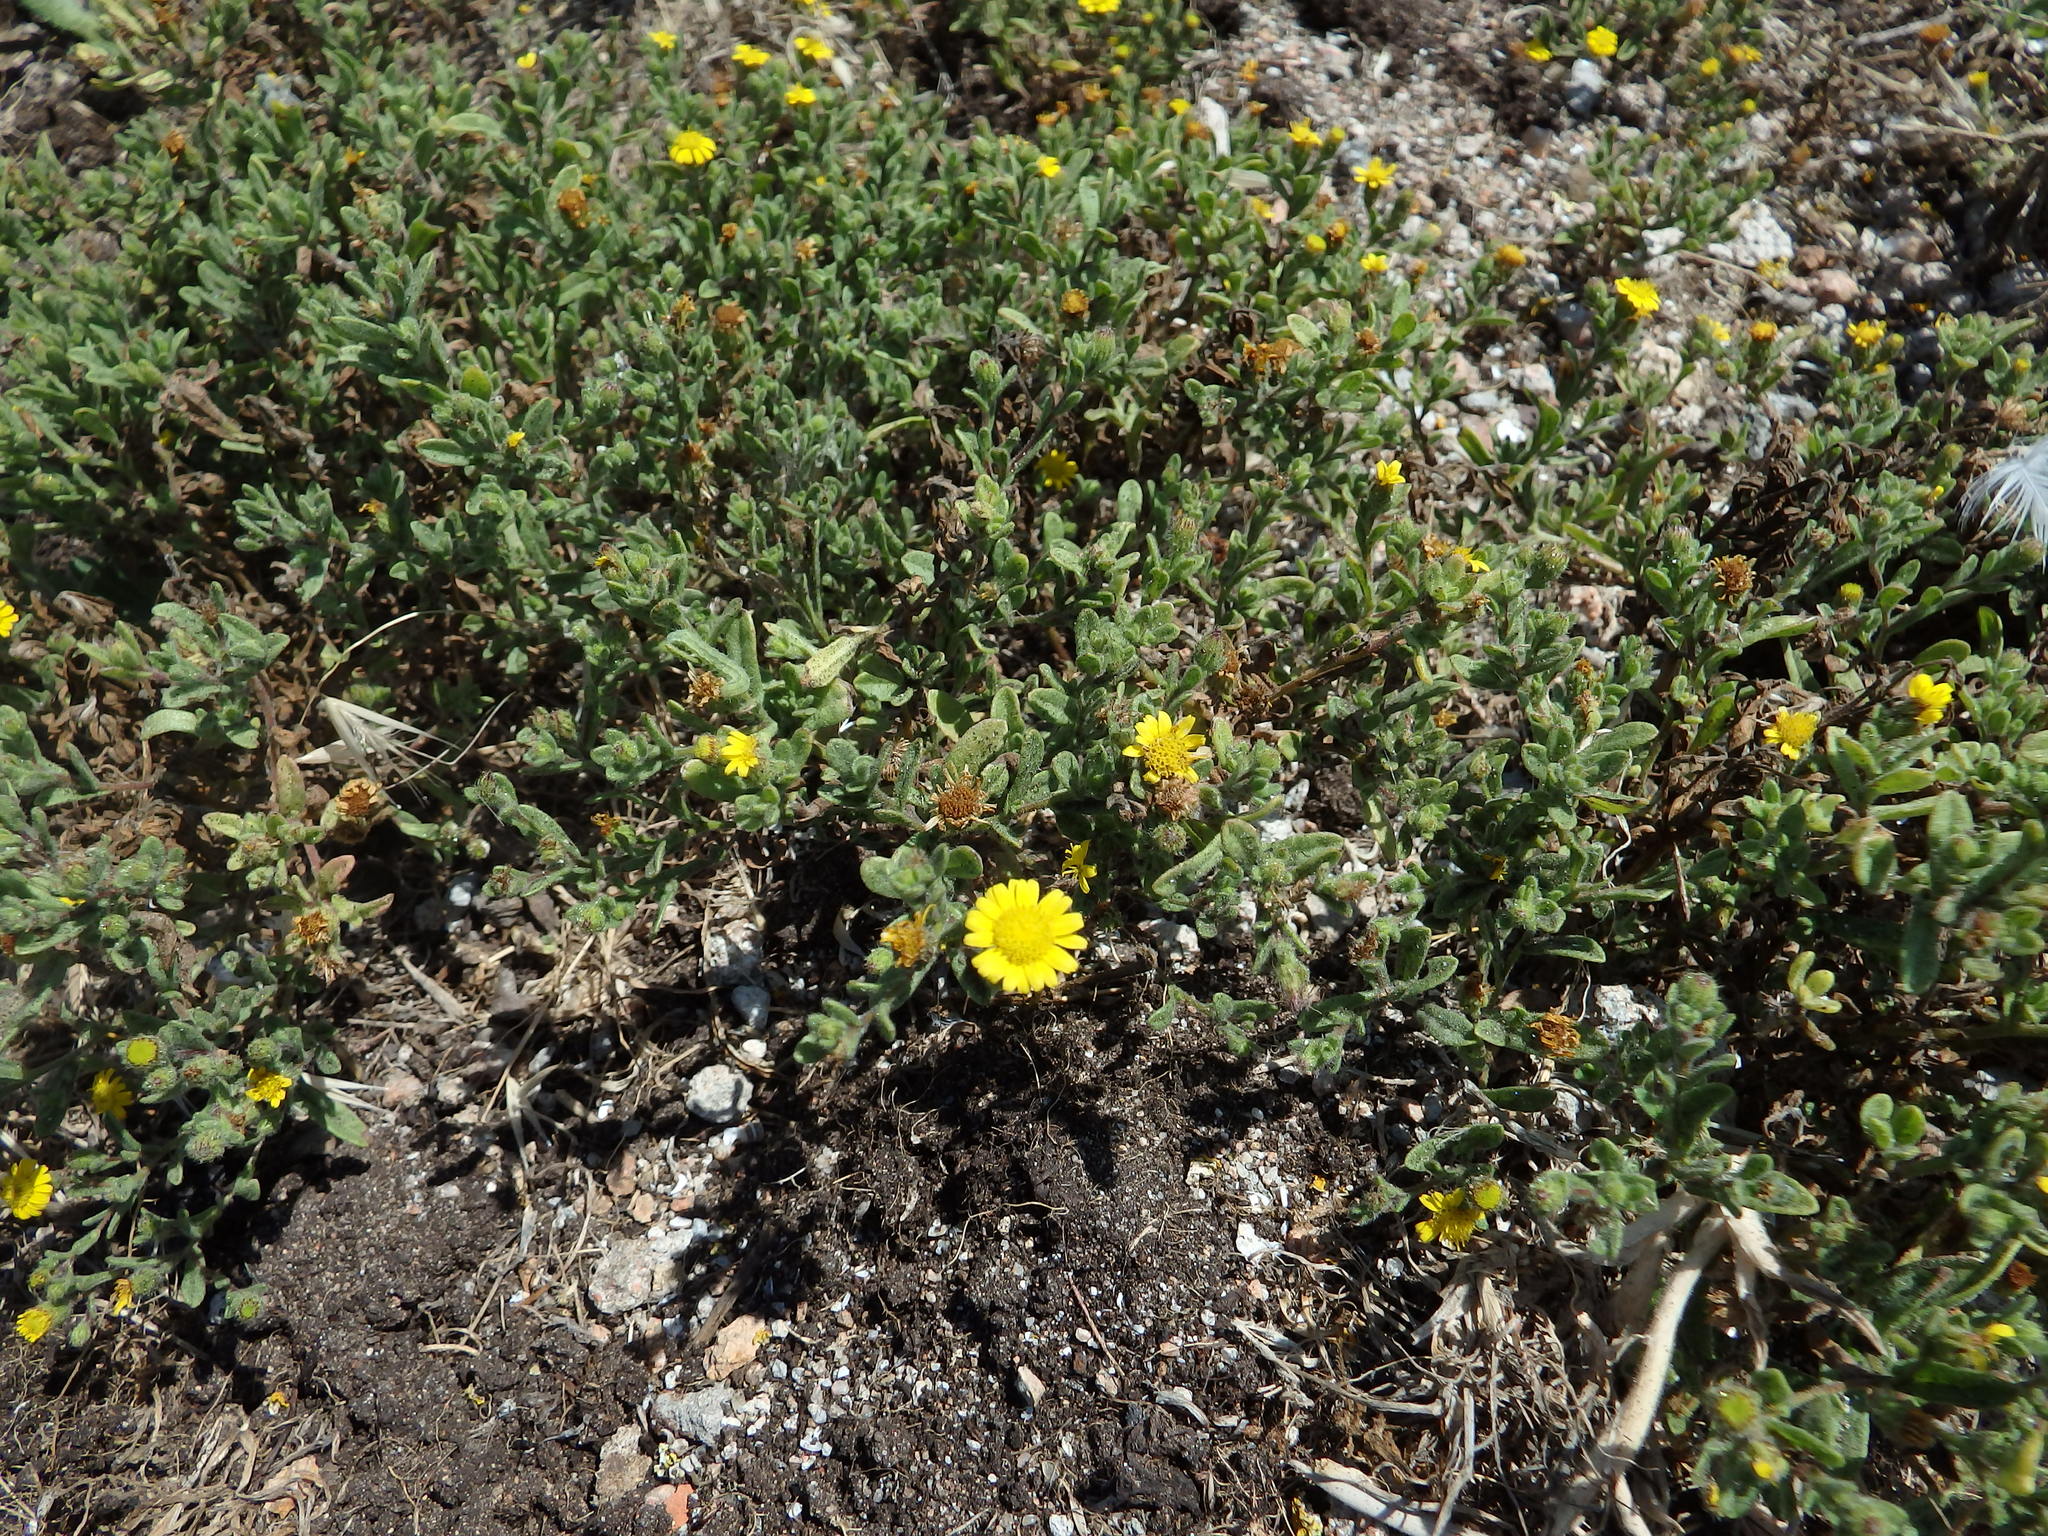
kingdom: Plantae
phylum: Tracheophyta
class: Magnoliopsida
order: Asterales
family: Asteraceae
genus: Pulicaria
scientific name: Pulicaria arabica
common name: Ladies' false fleabane
